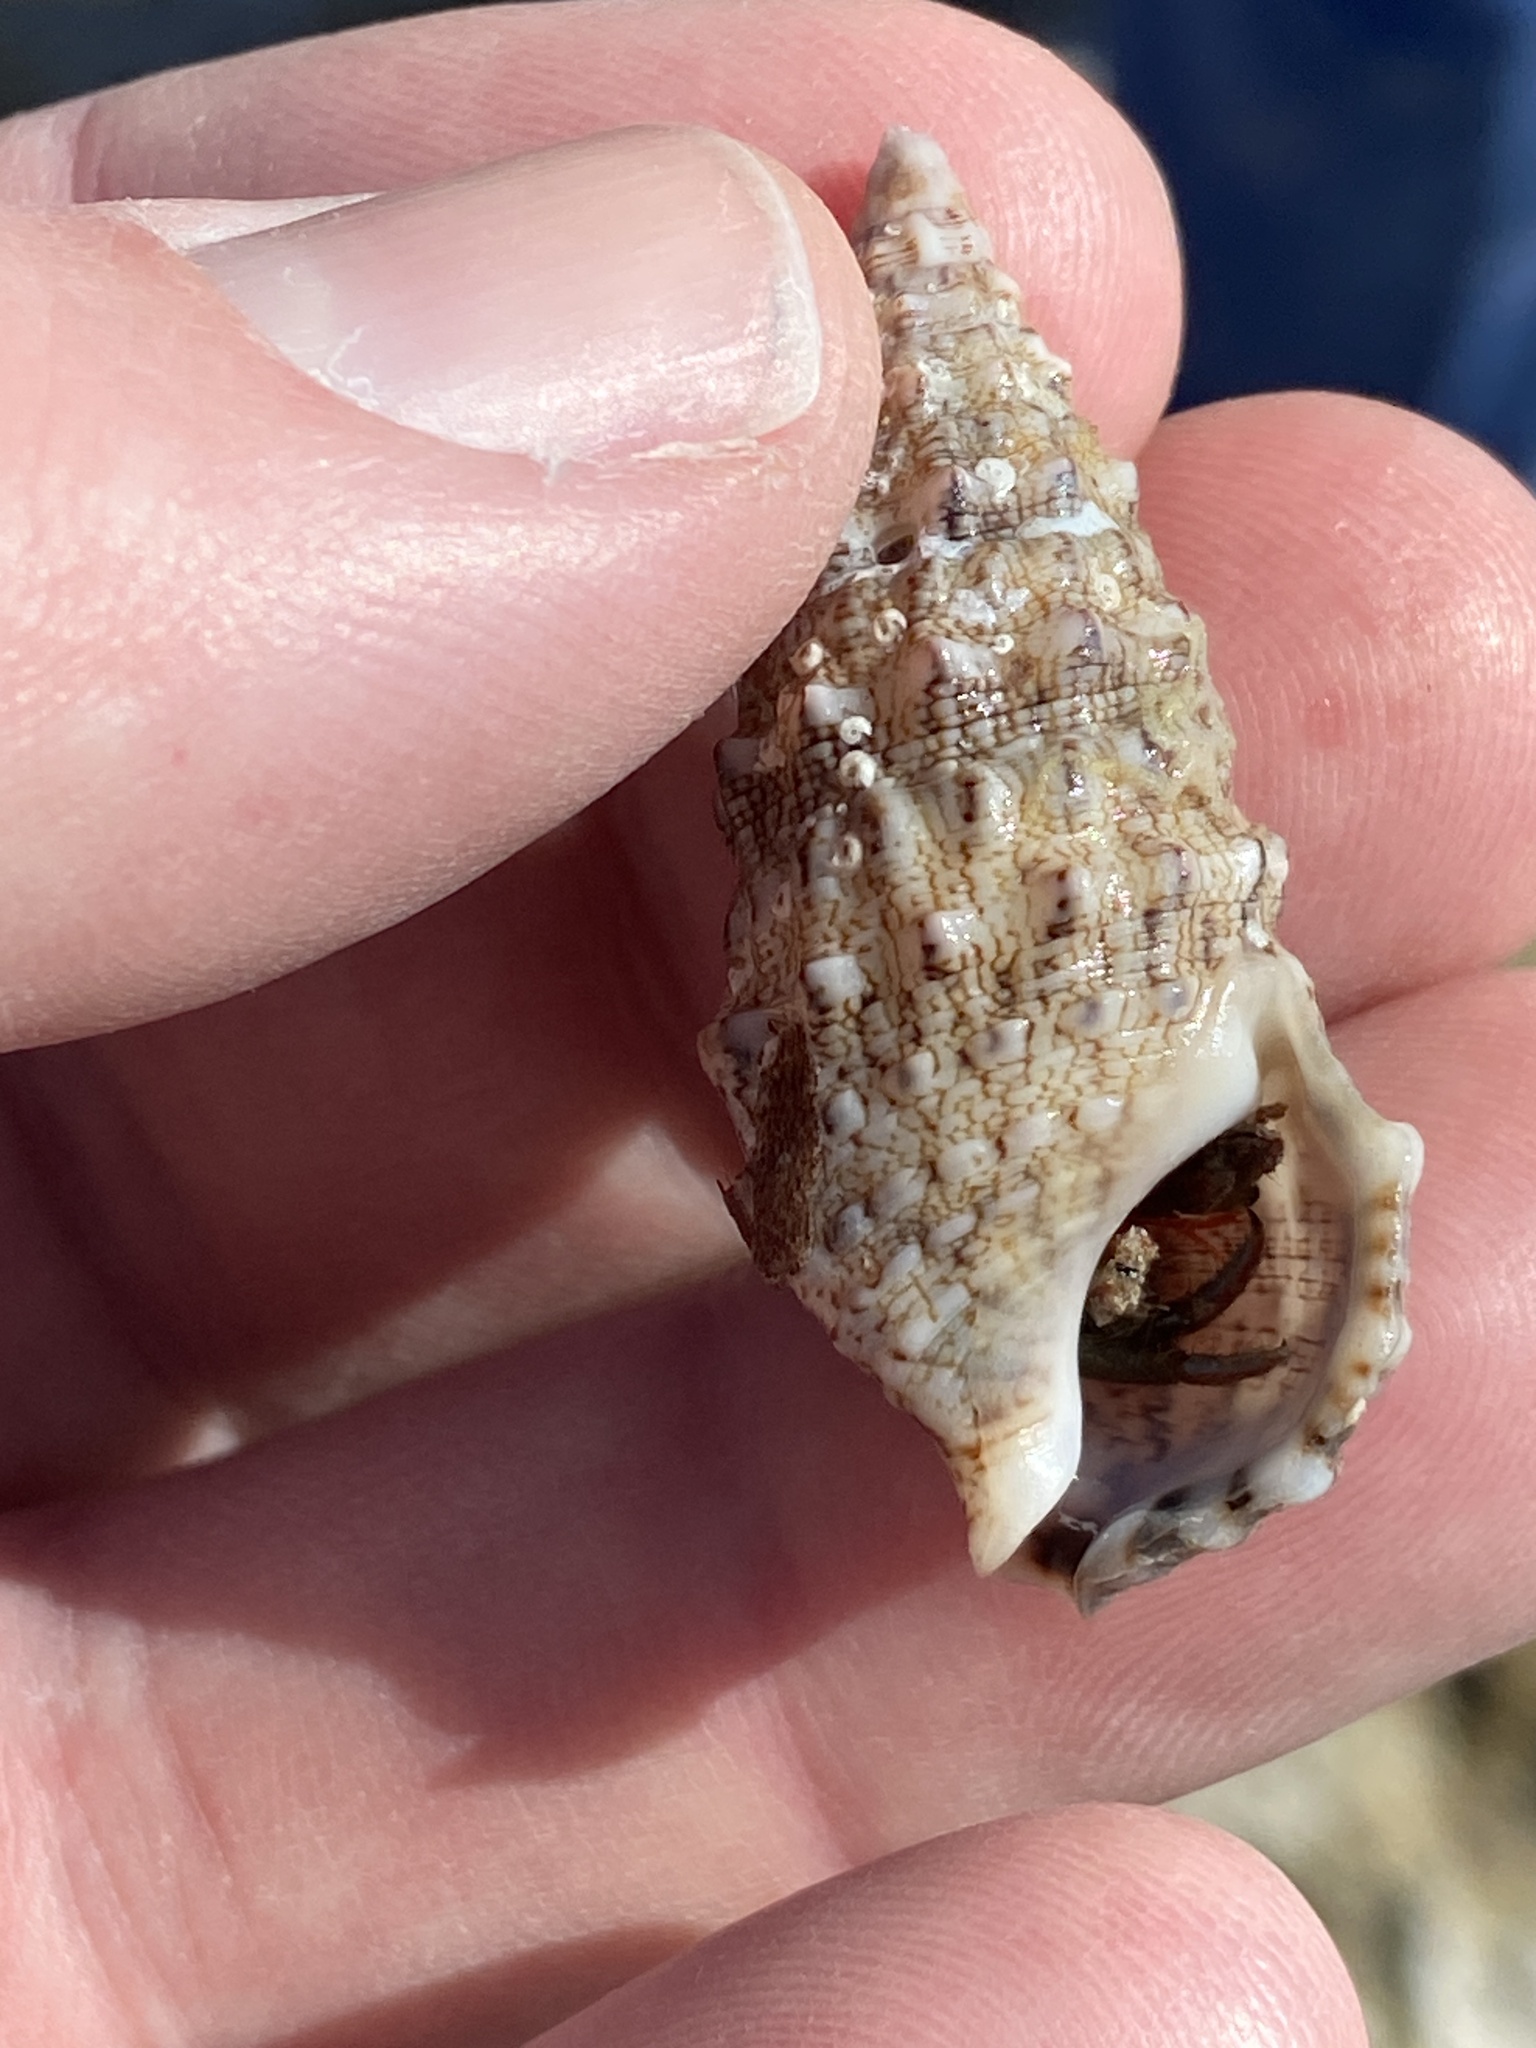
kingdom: Animalia
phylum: Mollusca
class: Gastropoda
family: Cerithiidae
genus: Cerithium
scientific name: Cerithium vulgatum
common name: European cerith
